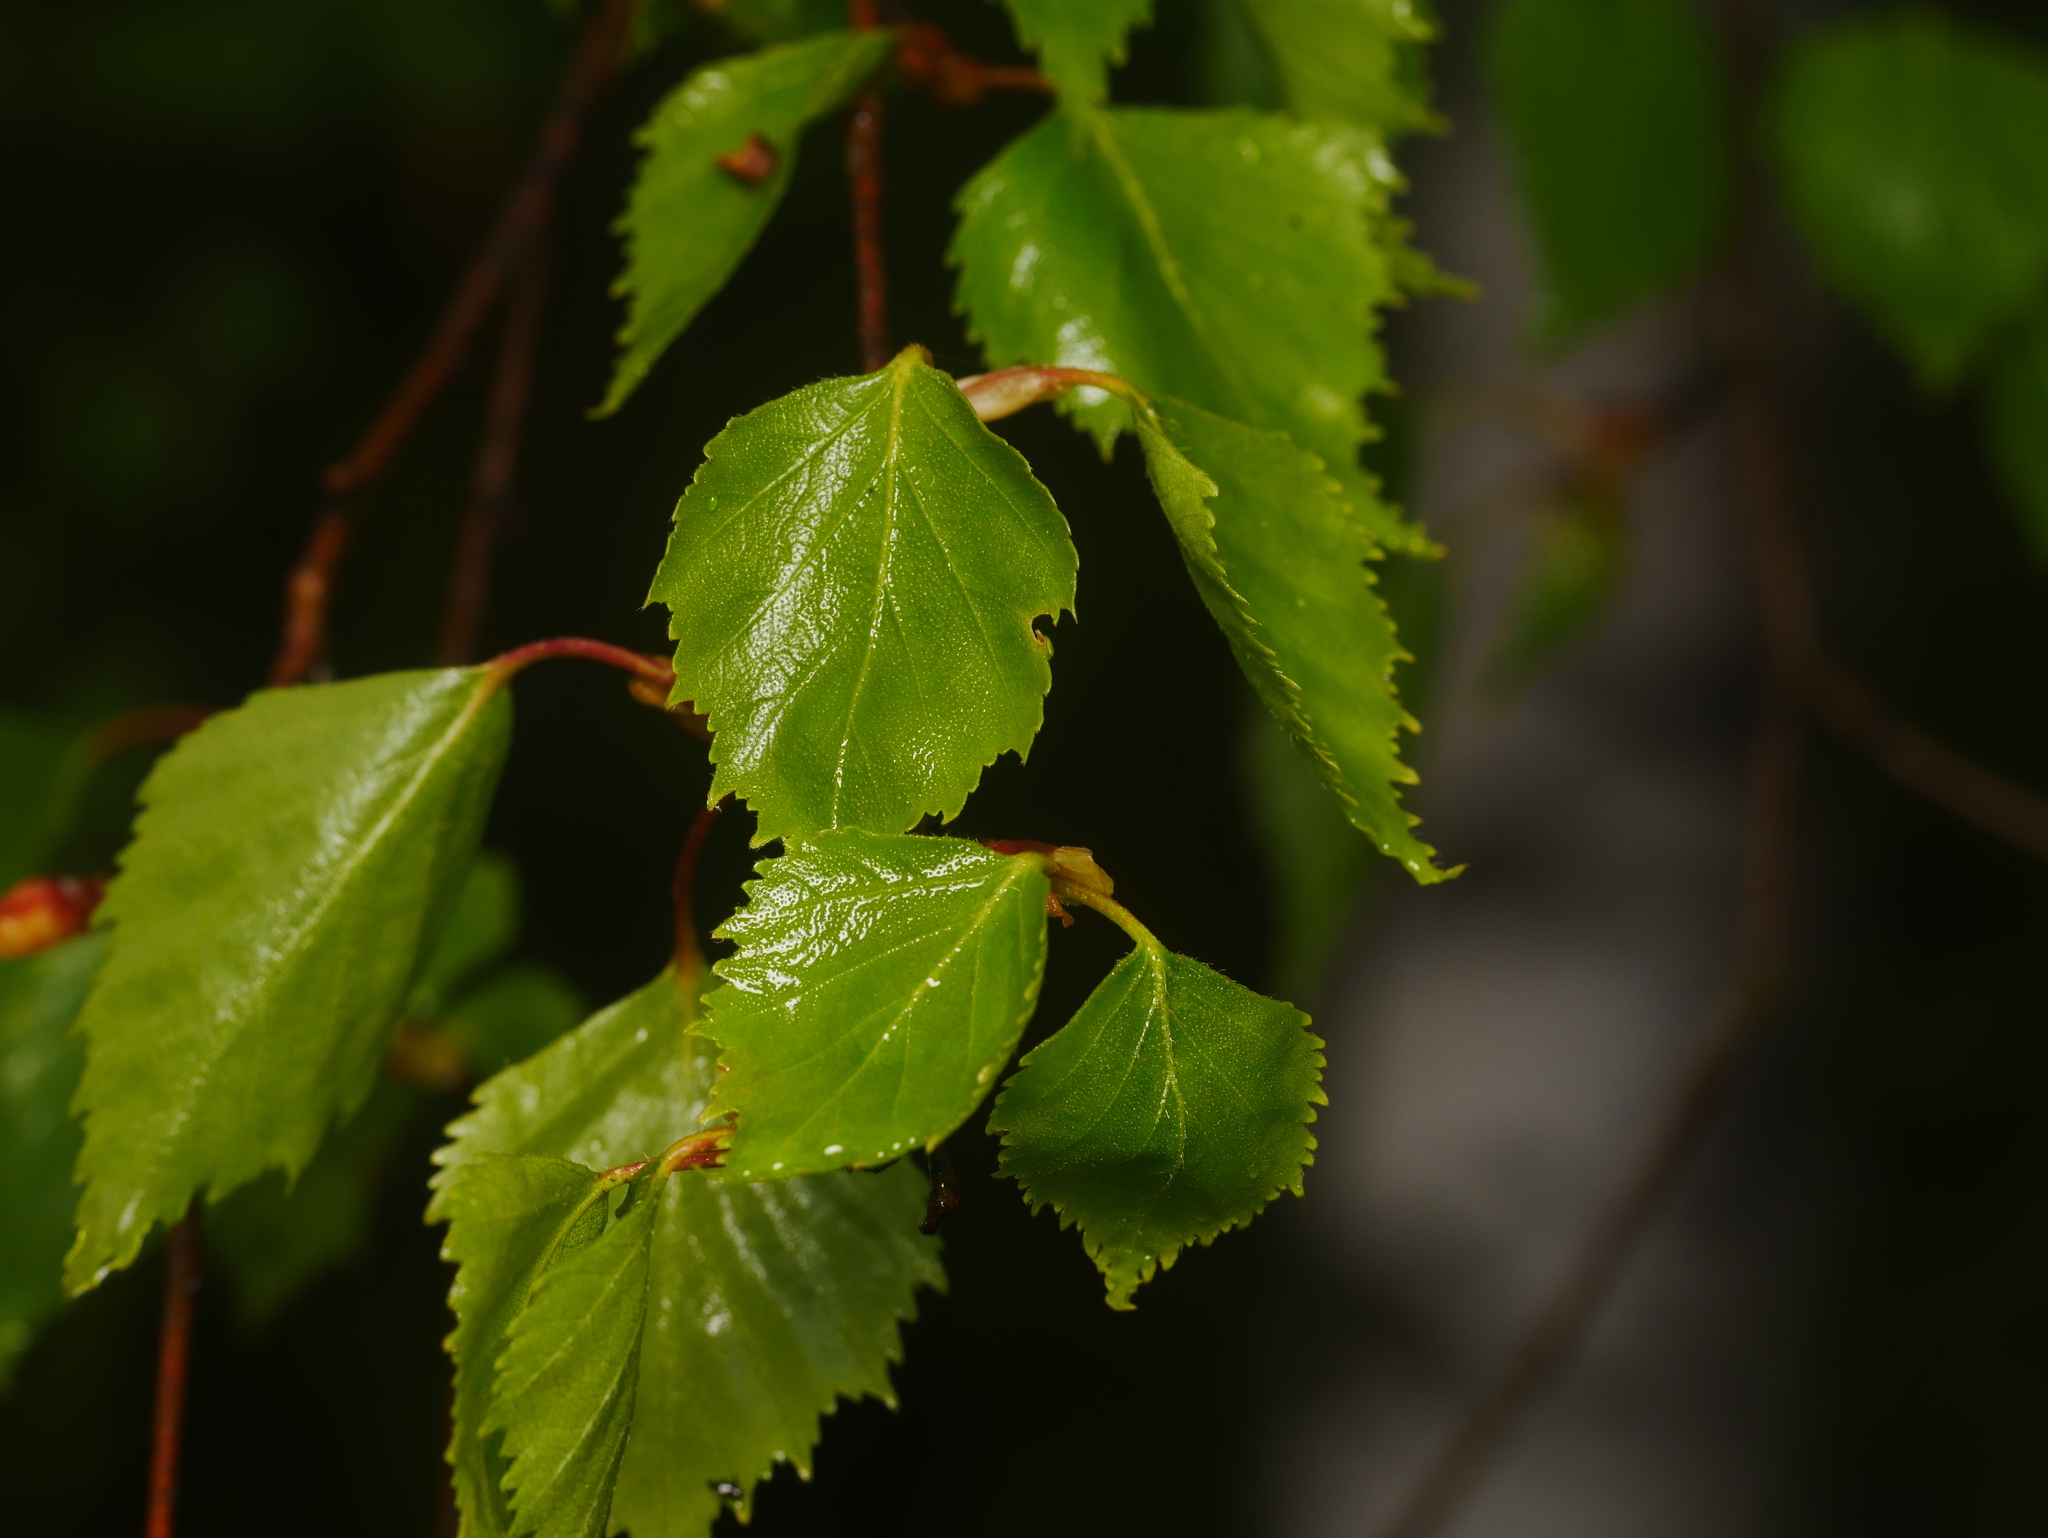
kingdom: Plantae
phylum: Tracheophyta
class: Magnoliopsida
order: Fagales
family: Betulaceae
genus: Betula
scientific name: Betula pendula
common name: Silver birch
